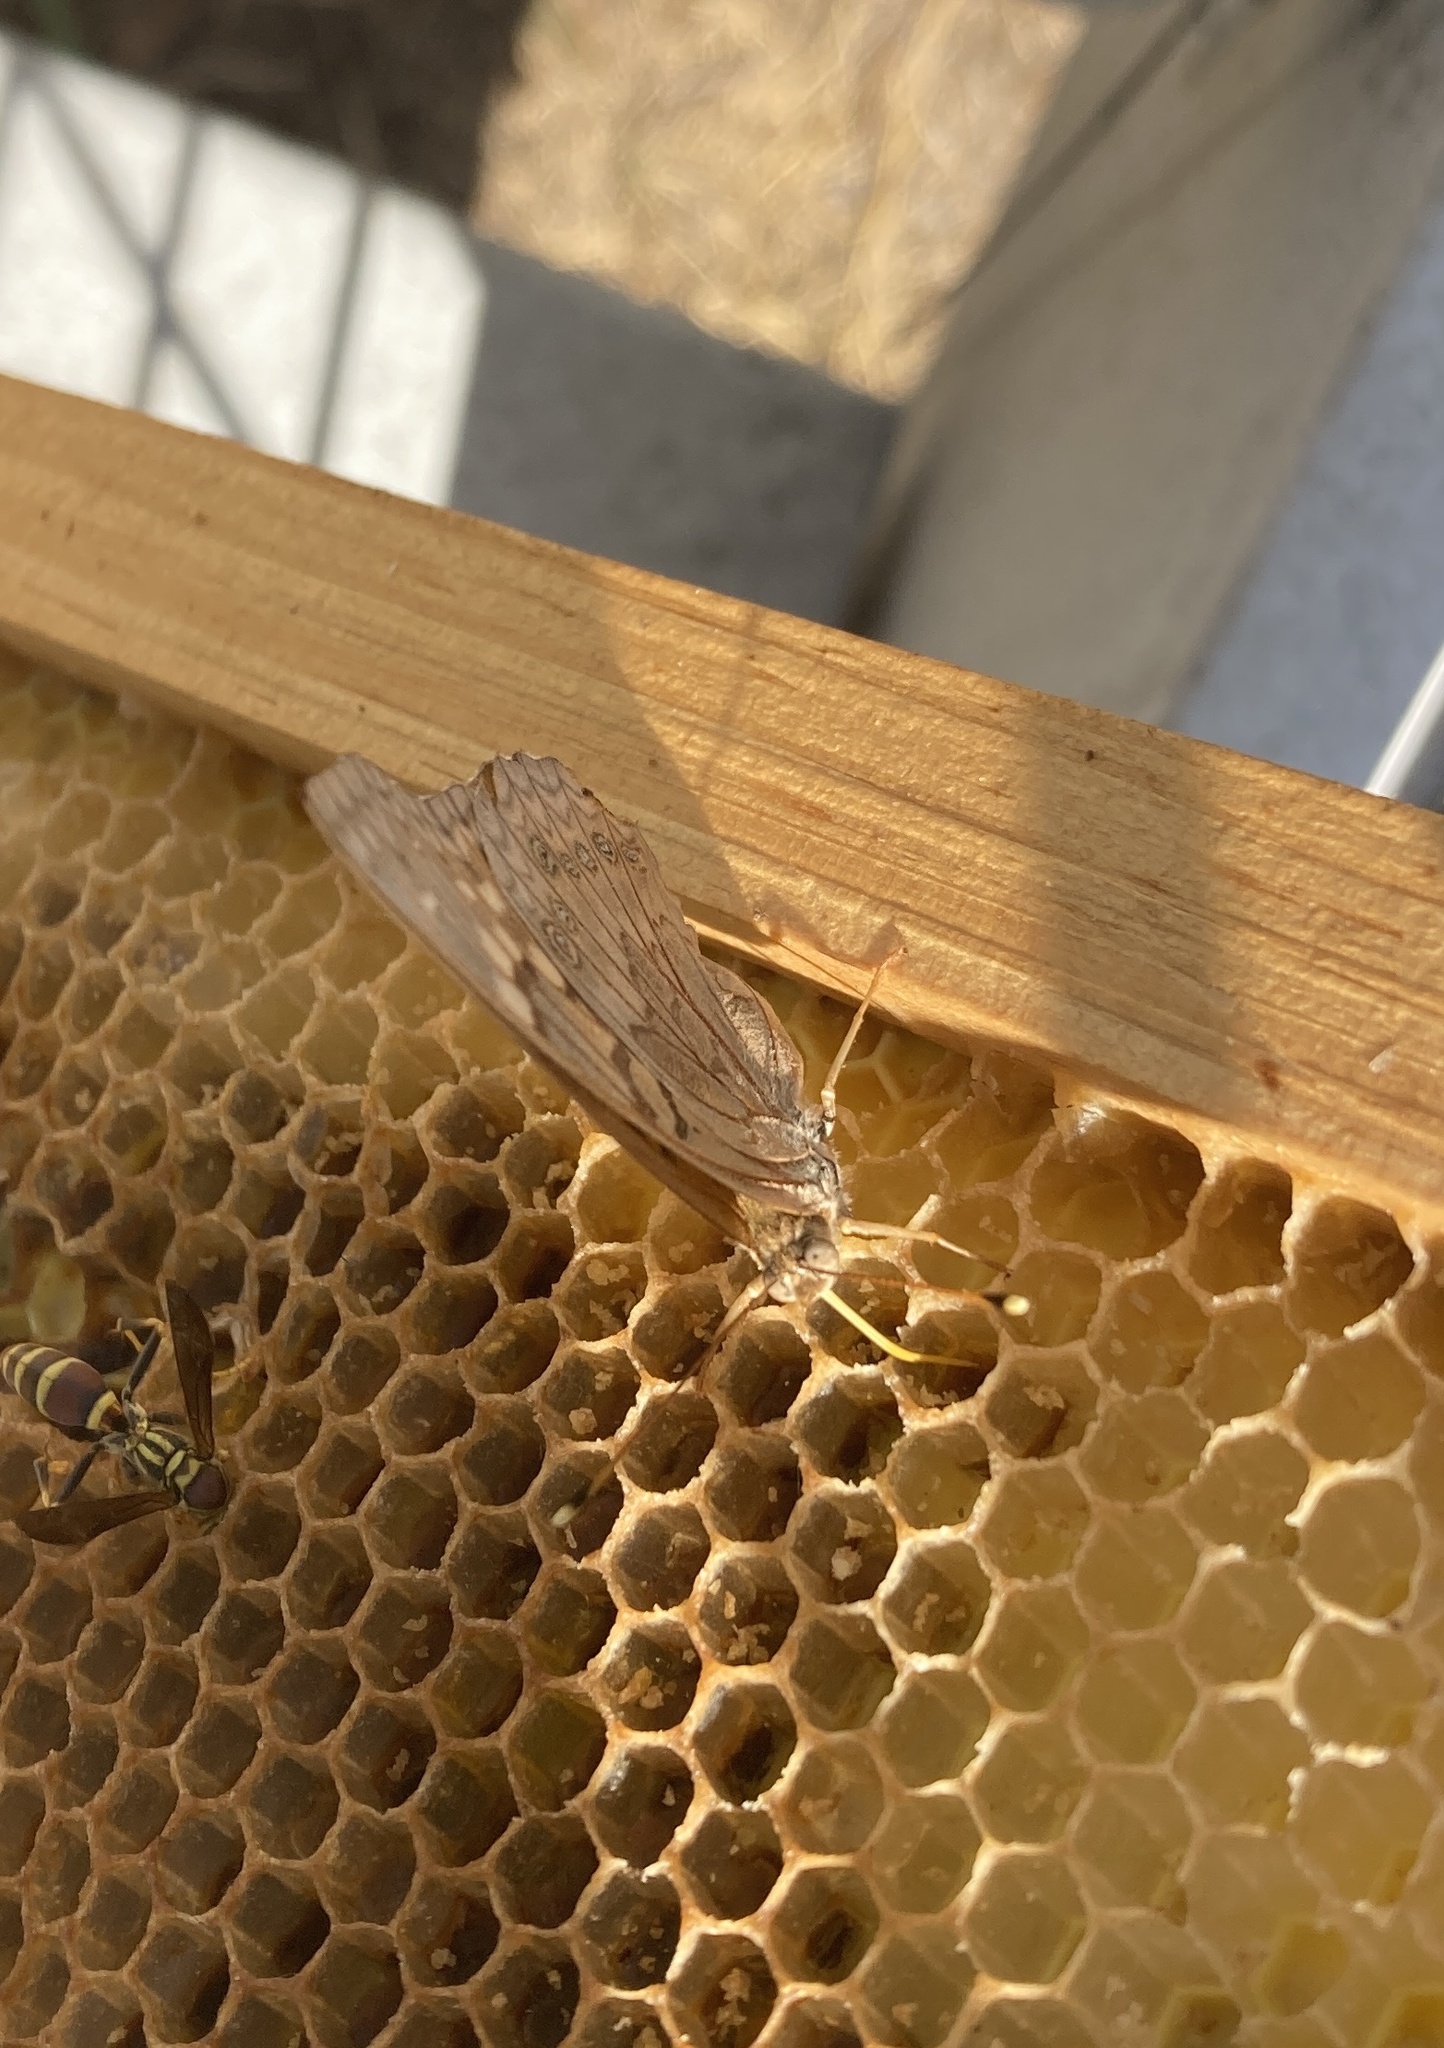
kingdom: Animalia
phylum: Arthropoda
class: Insecta
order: Lepidoptera
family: Nymphalidae
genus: Asterocampa
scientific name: Asterocampa clyton
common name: Tawny emperor
